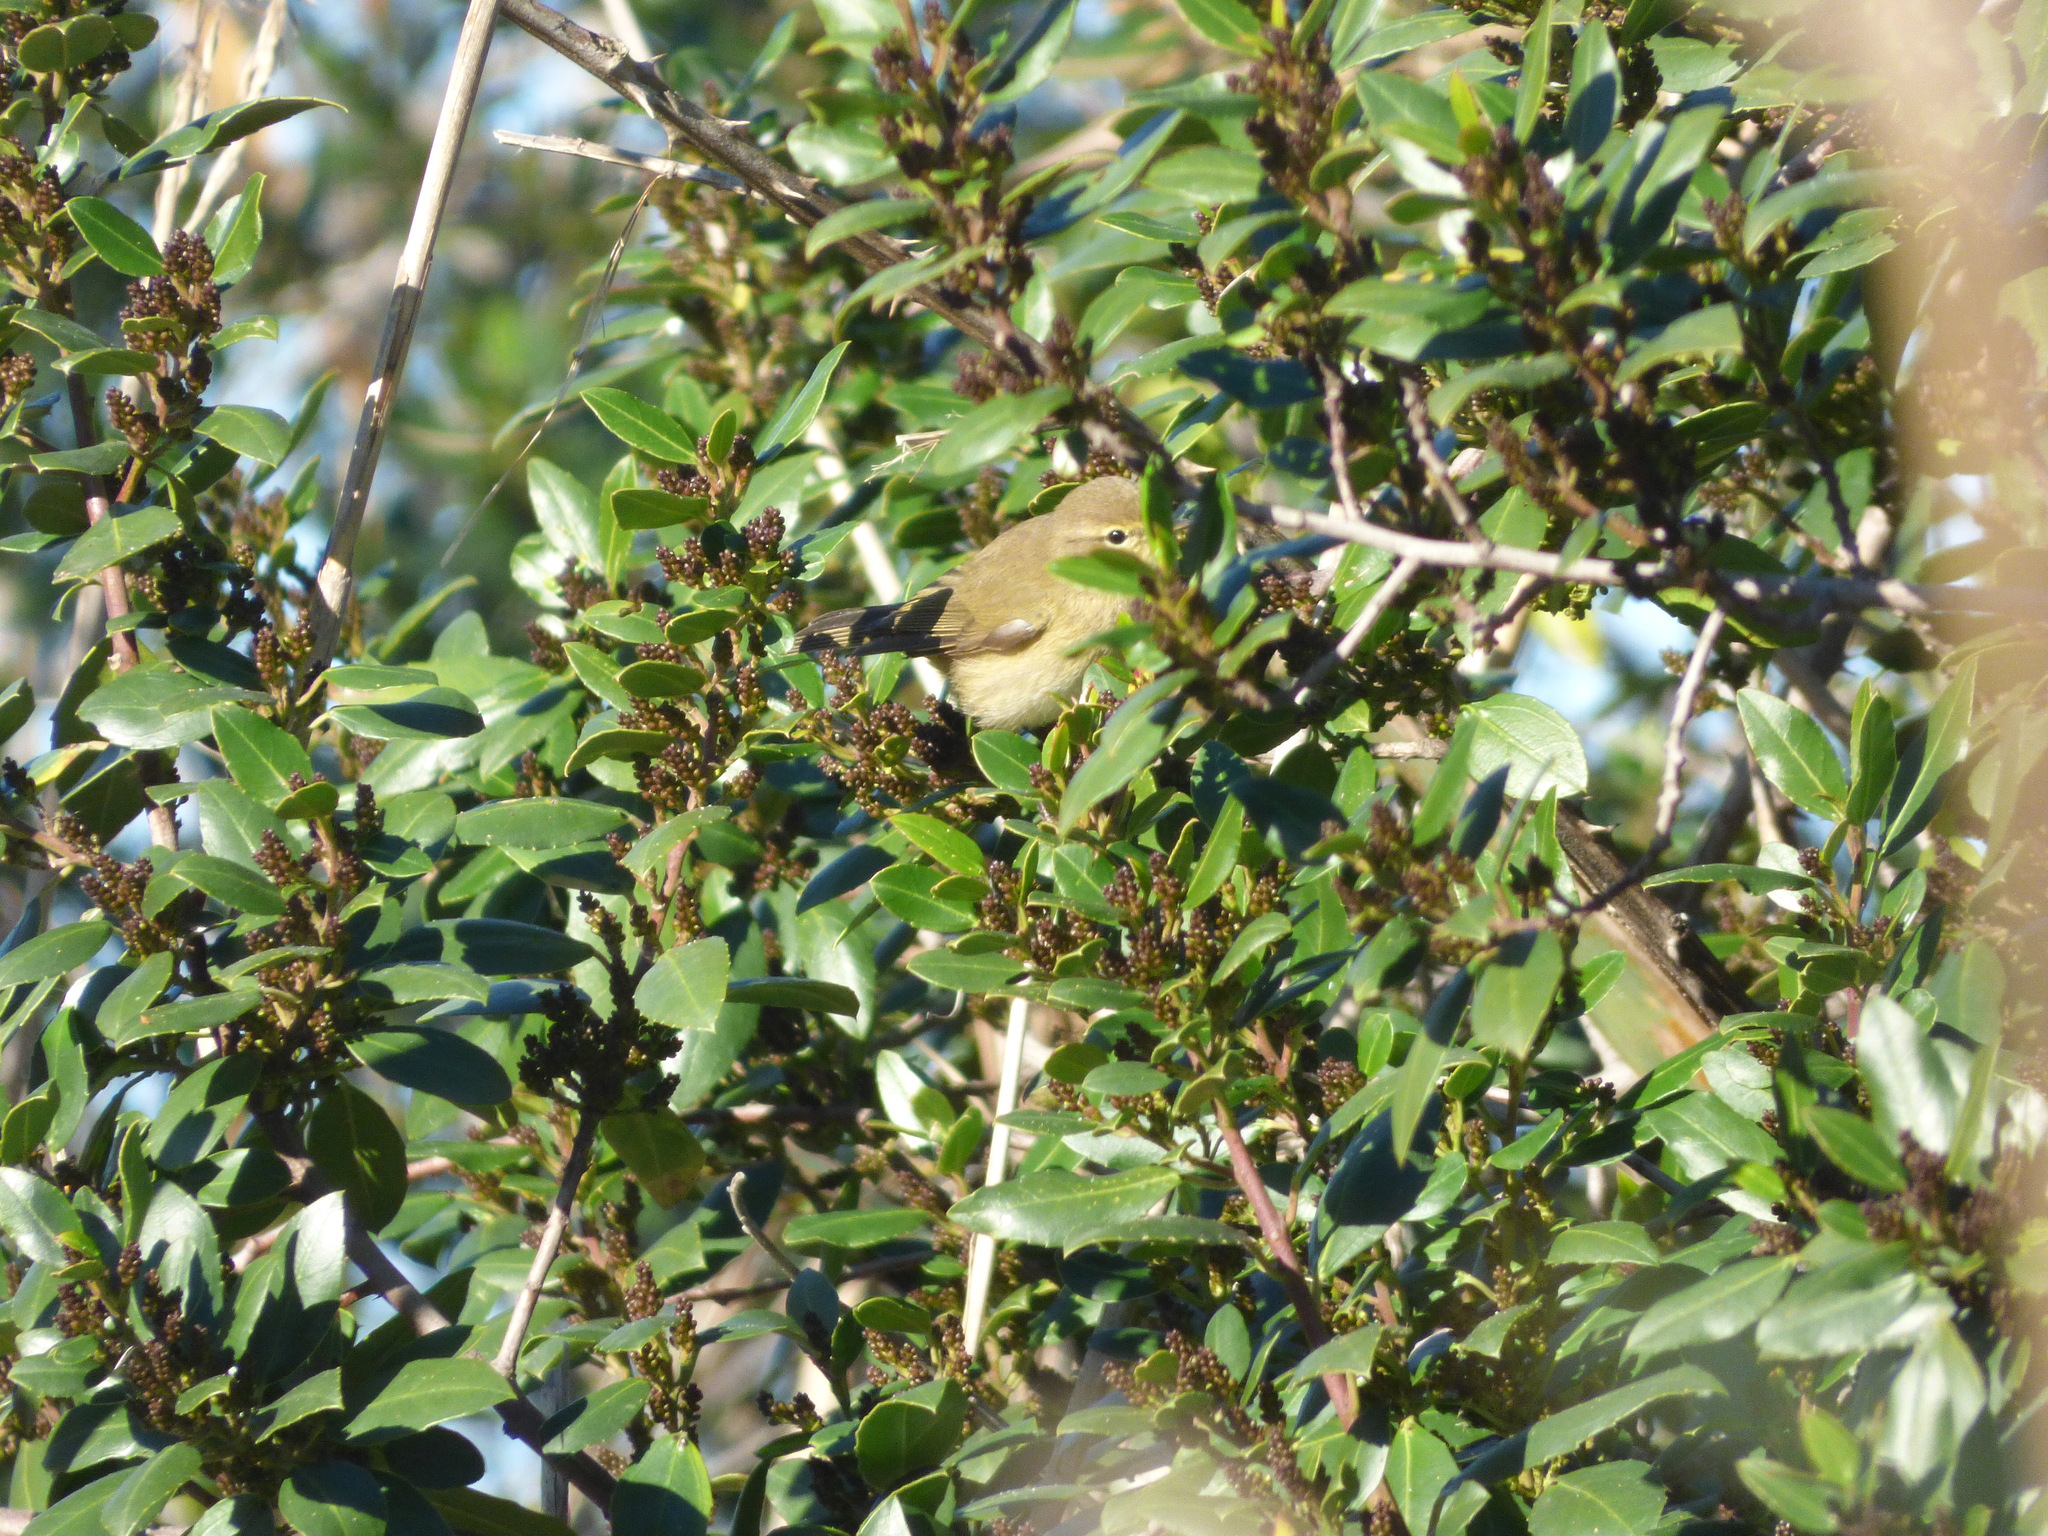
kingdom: Animalia
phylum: Chordata
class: Aves
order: Passeriformes
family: Phylloscopidae
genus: Phylloscopus
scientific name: Phylloscopus collybita
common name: Common chiffchaff
